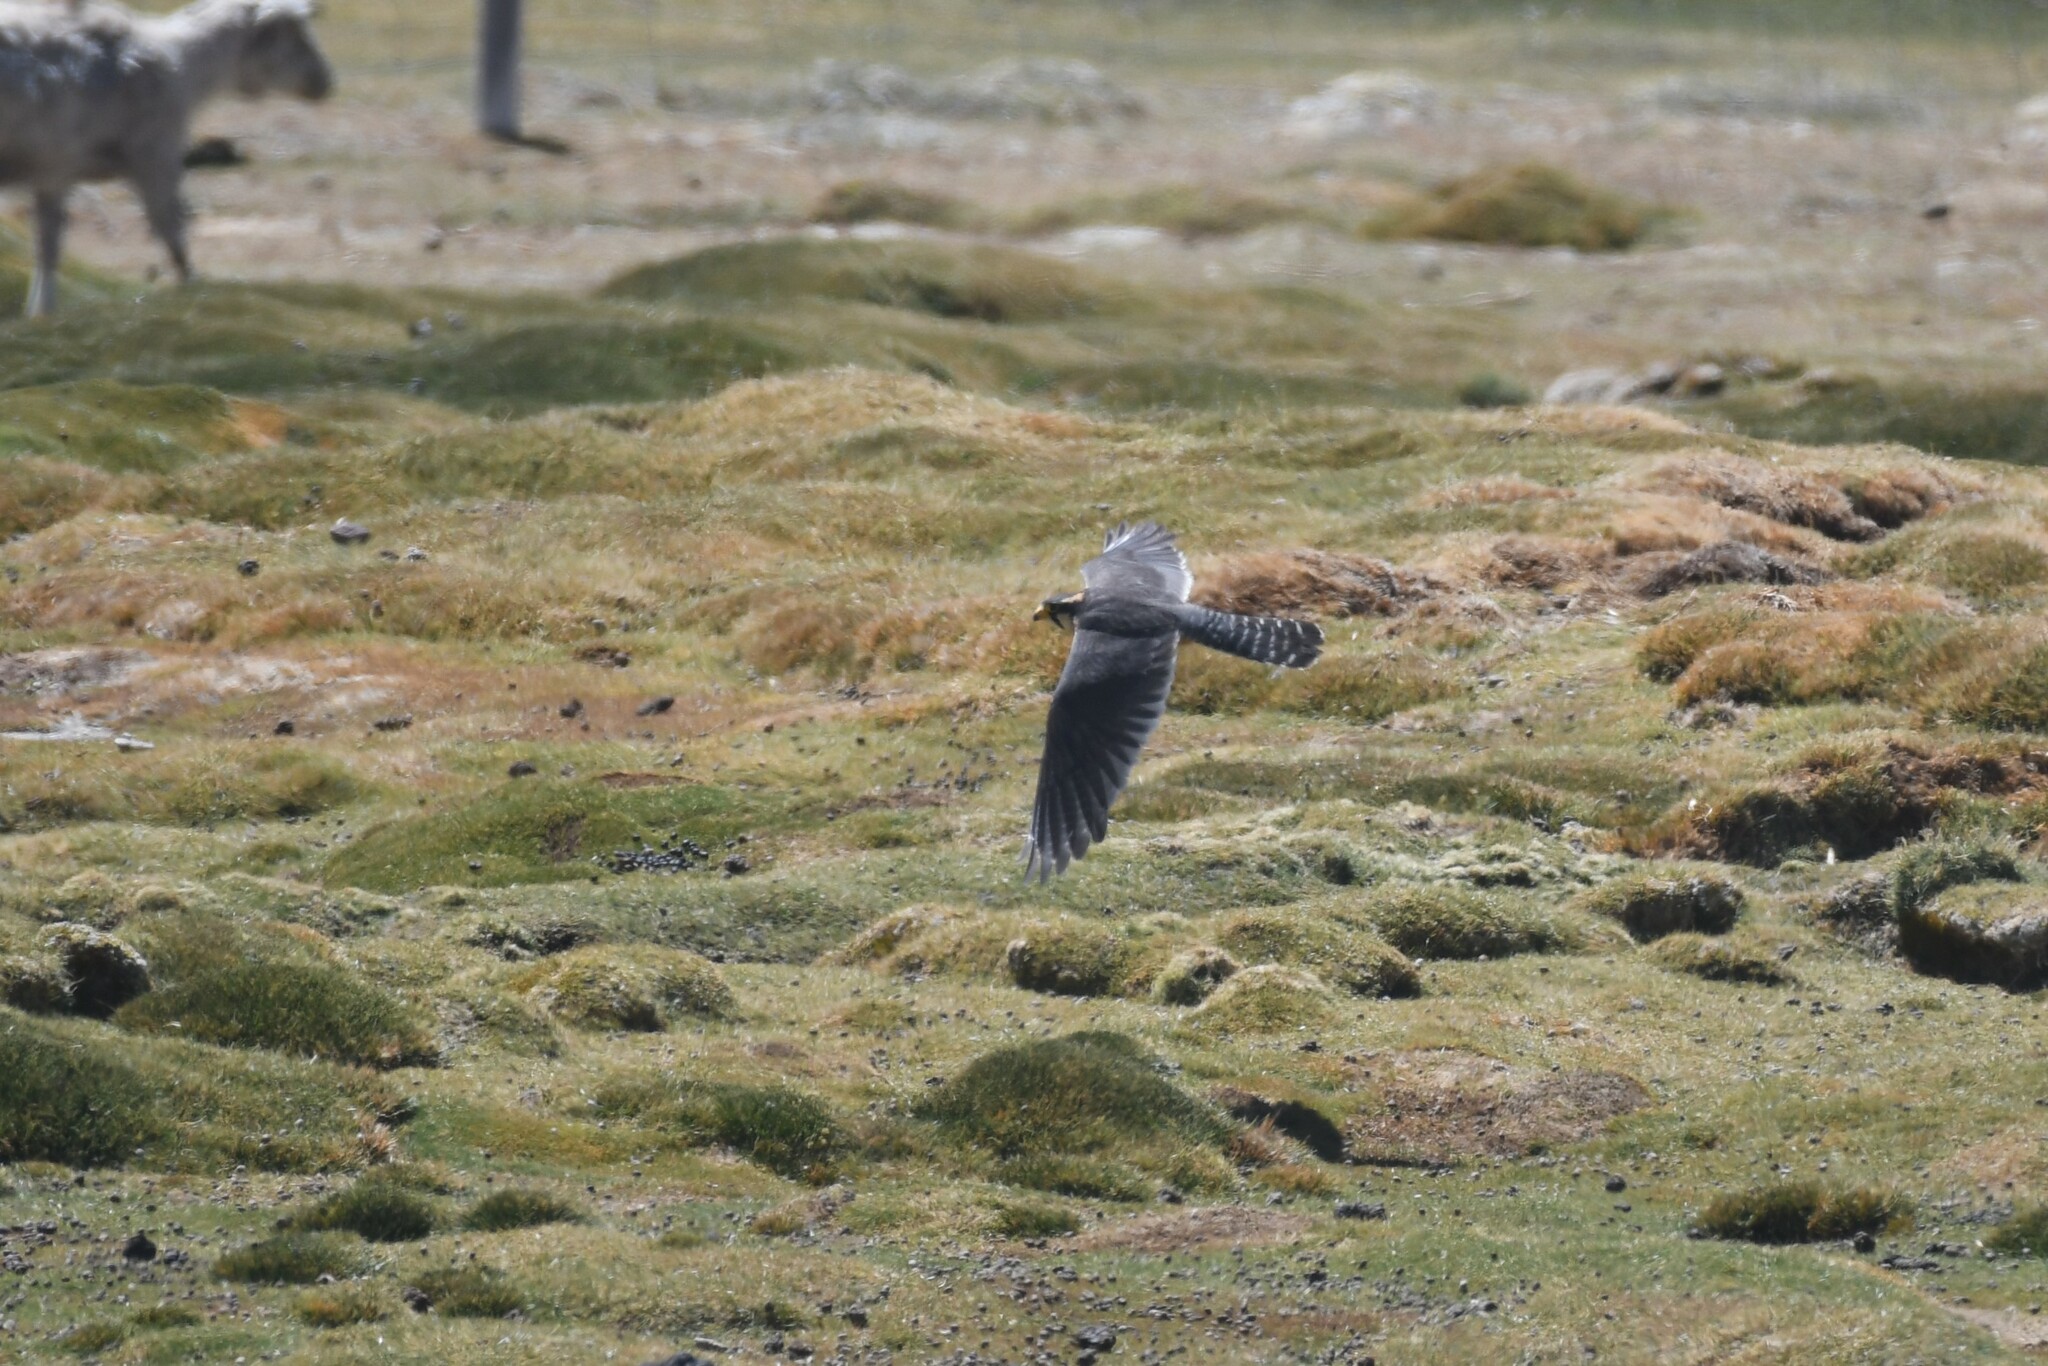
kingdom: Animalia
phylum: Chordata
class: Aves
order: Falconiformes
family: Falconidae
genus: Falco
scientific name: Falco femoralis
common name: Aplomado falcon
